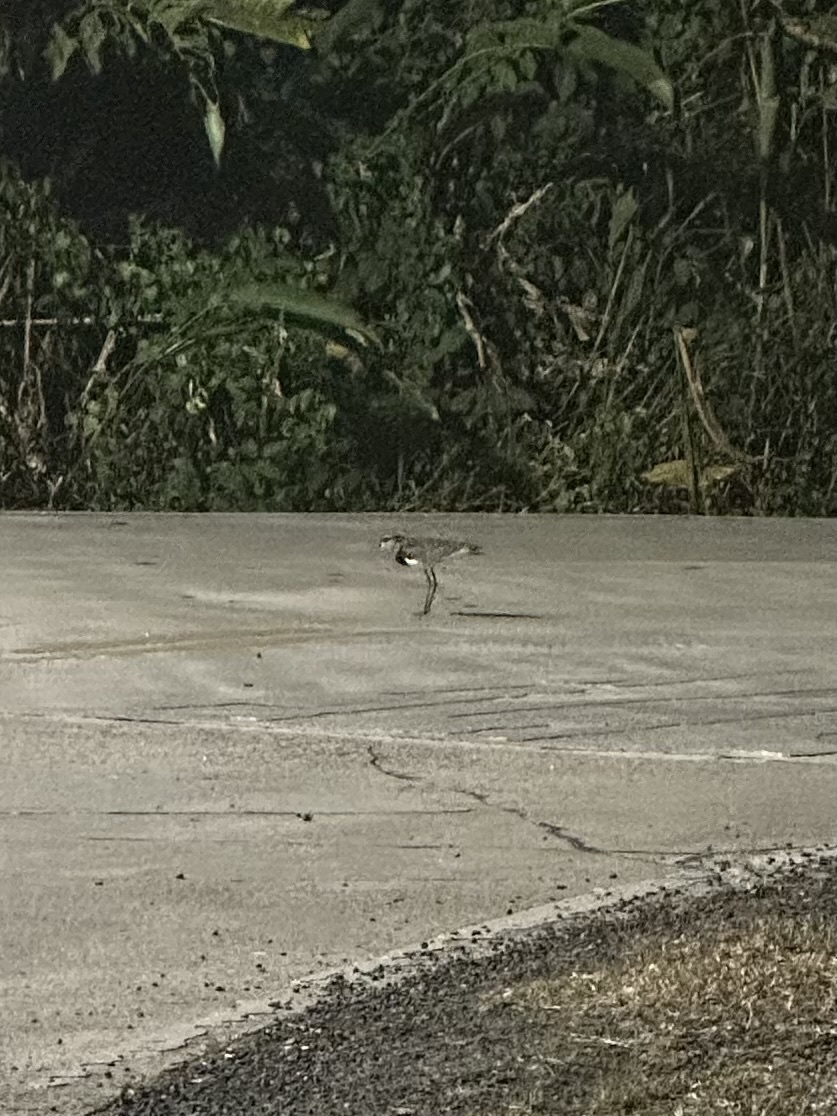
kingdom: Animalia
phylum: Chordata
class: Aves
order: Charadriiformes
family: Charadriidae
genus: Vanellus
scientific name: Vanellus chilensis
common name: Southern lapwing
